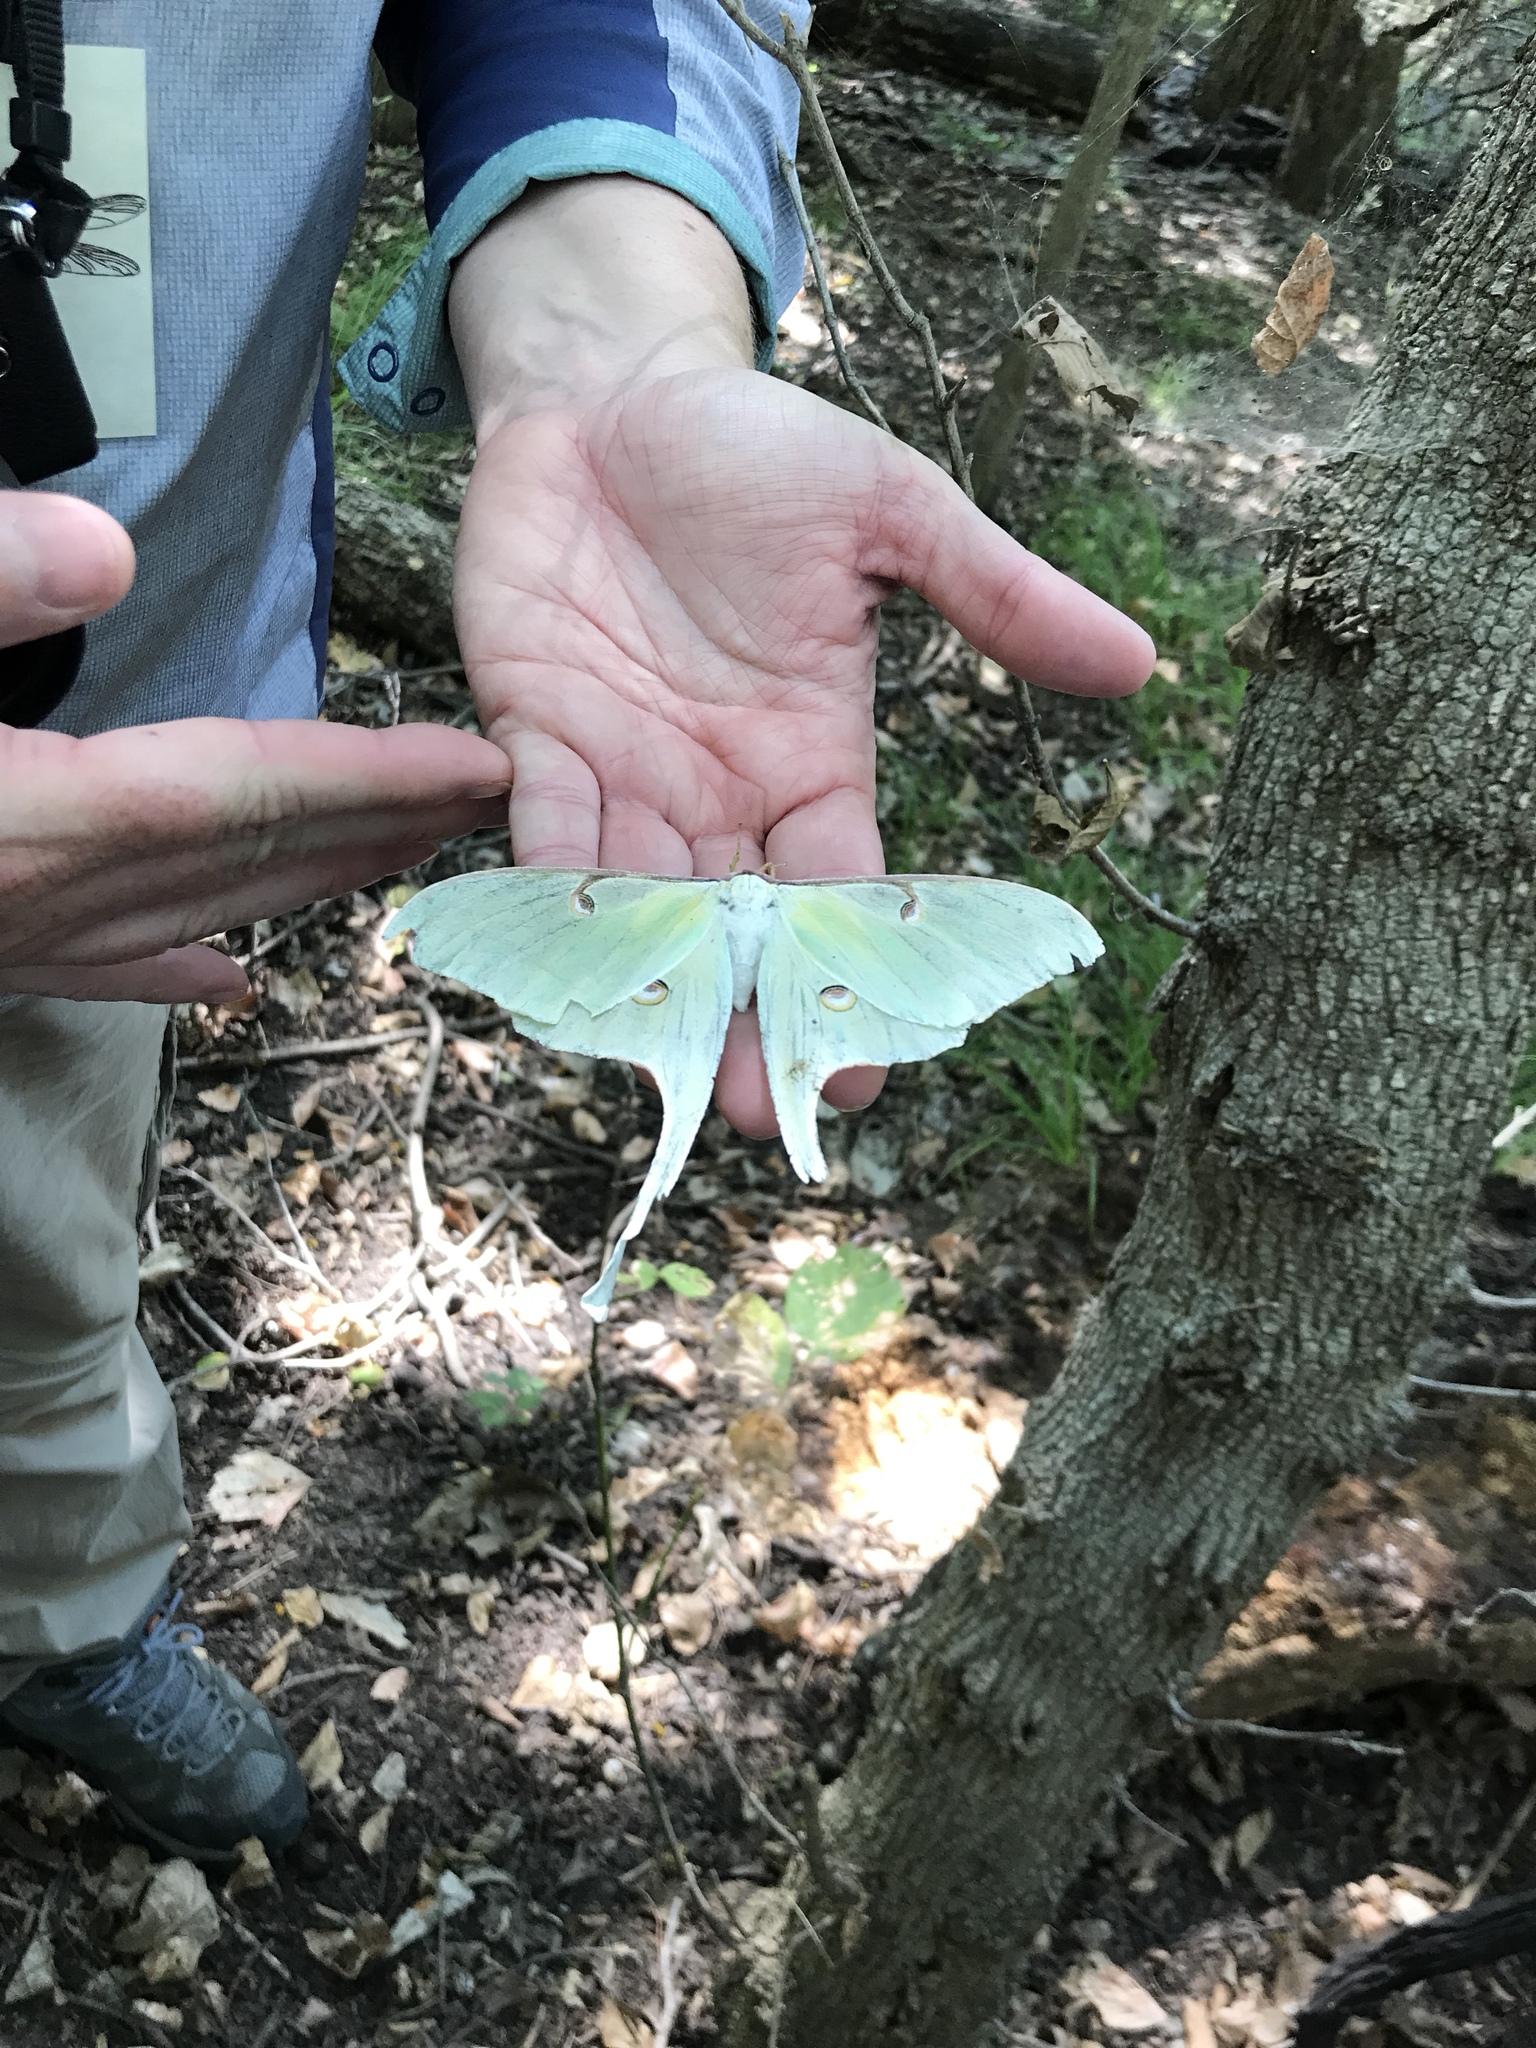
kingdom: Animalia
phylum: Arthropoda
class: Insecta
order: Lepidoptera
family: Saturniidae
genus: Actias
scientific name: Actias luna
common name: Luna moth
